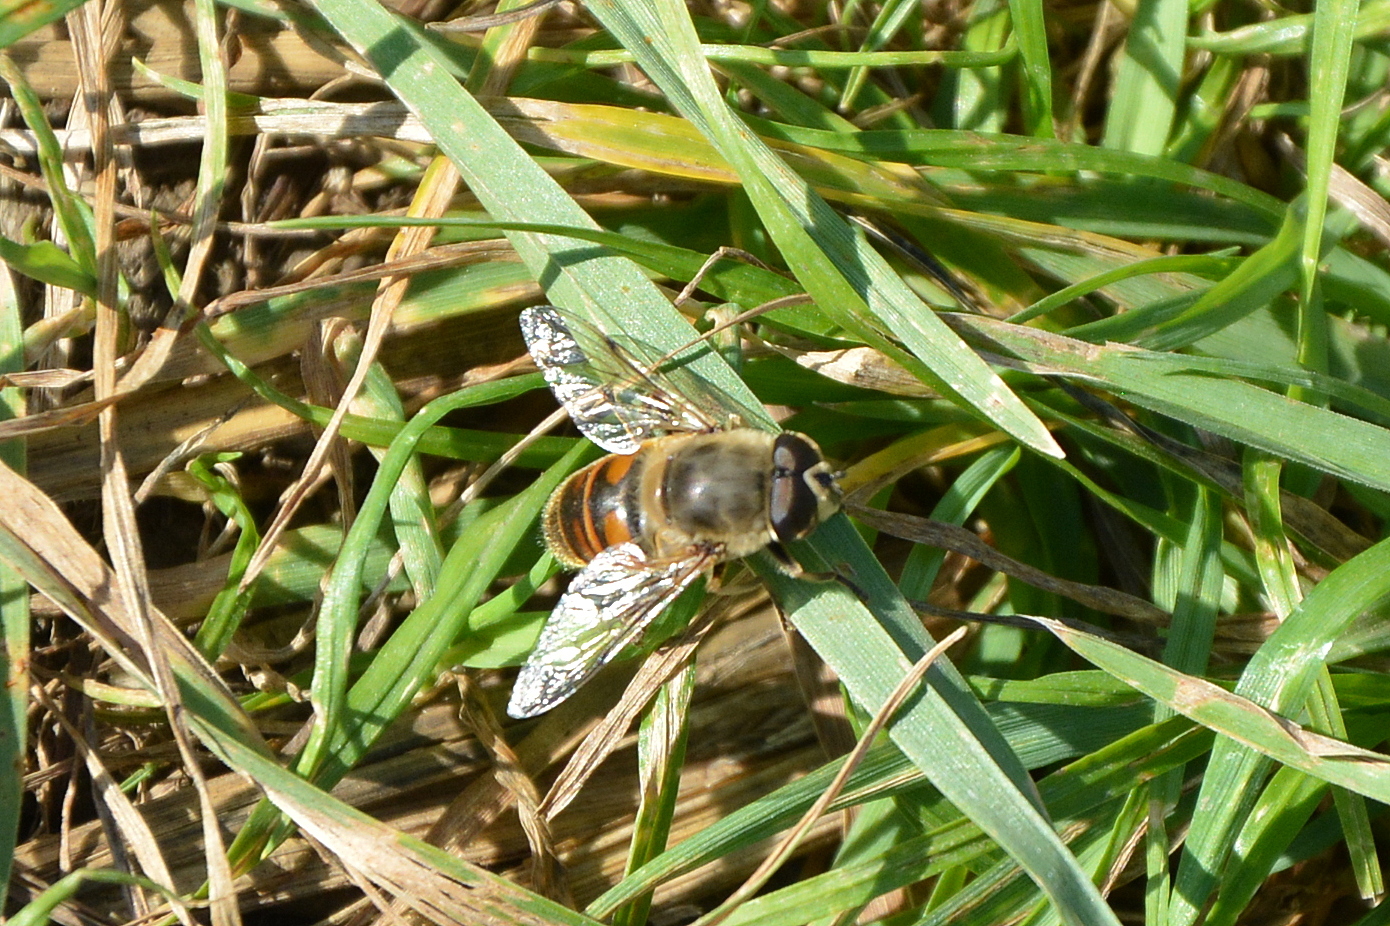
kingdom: Animalia
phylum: Arthropoda
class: Insecta
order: Diptera
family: Syrphidae
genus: Eristalis
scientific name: Eristalis tenax
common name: Drone fly
